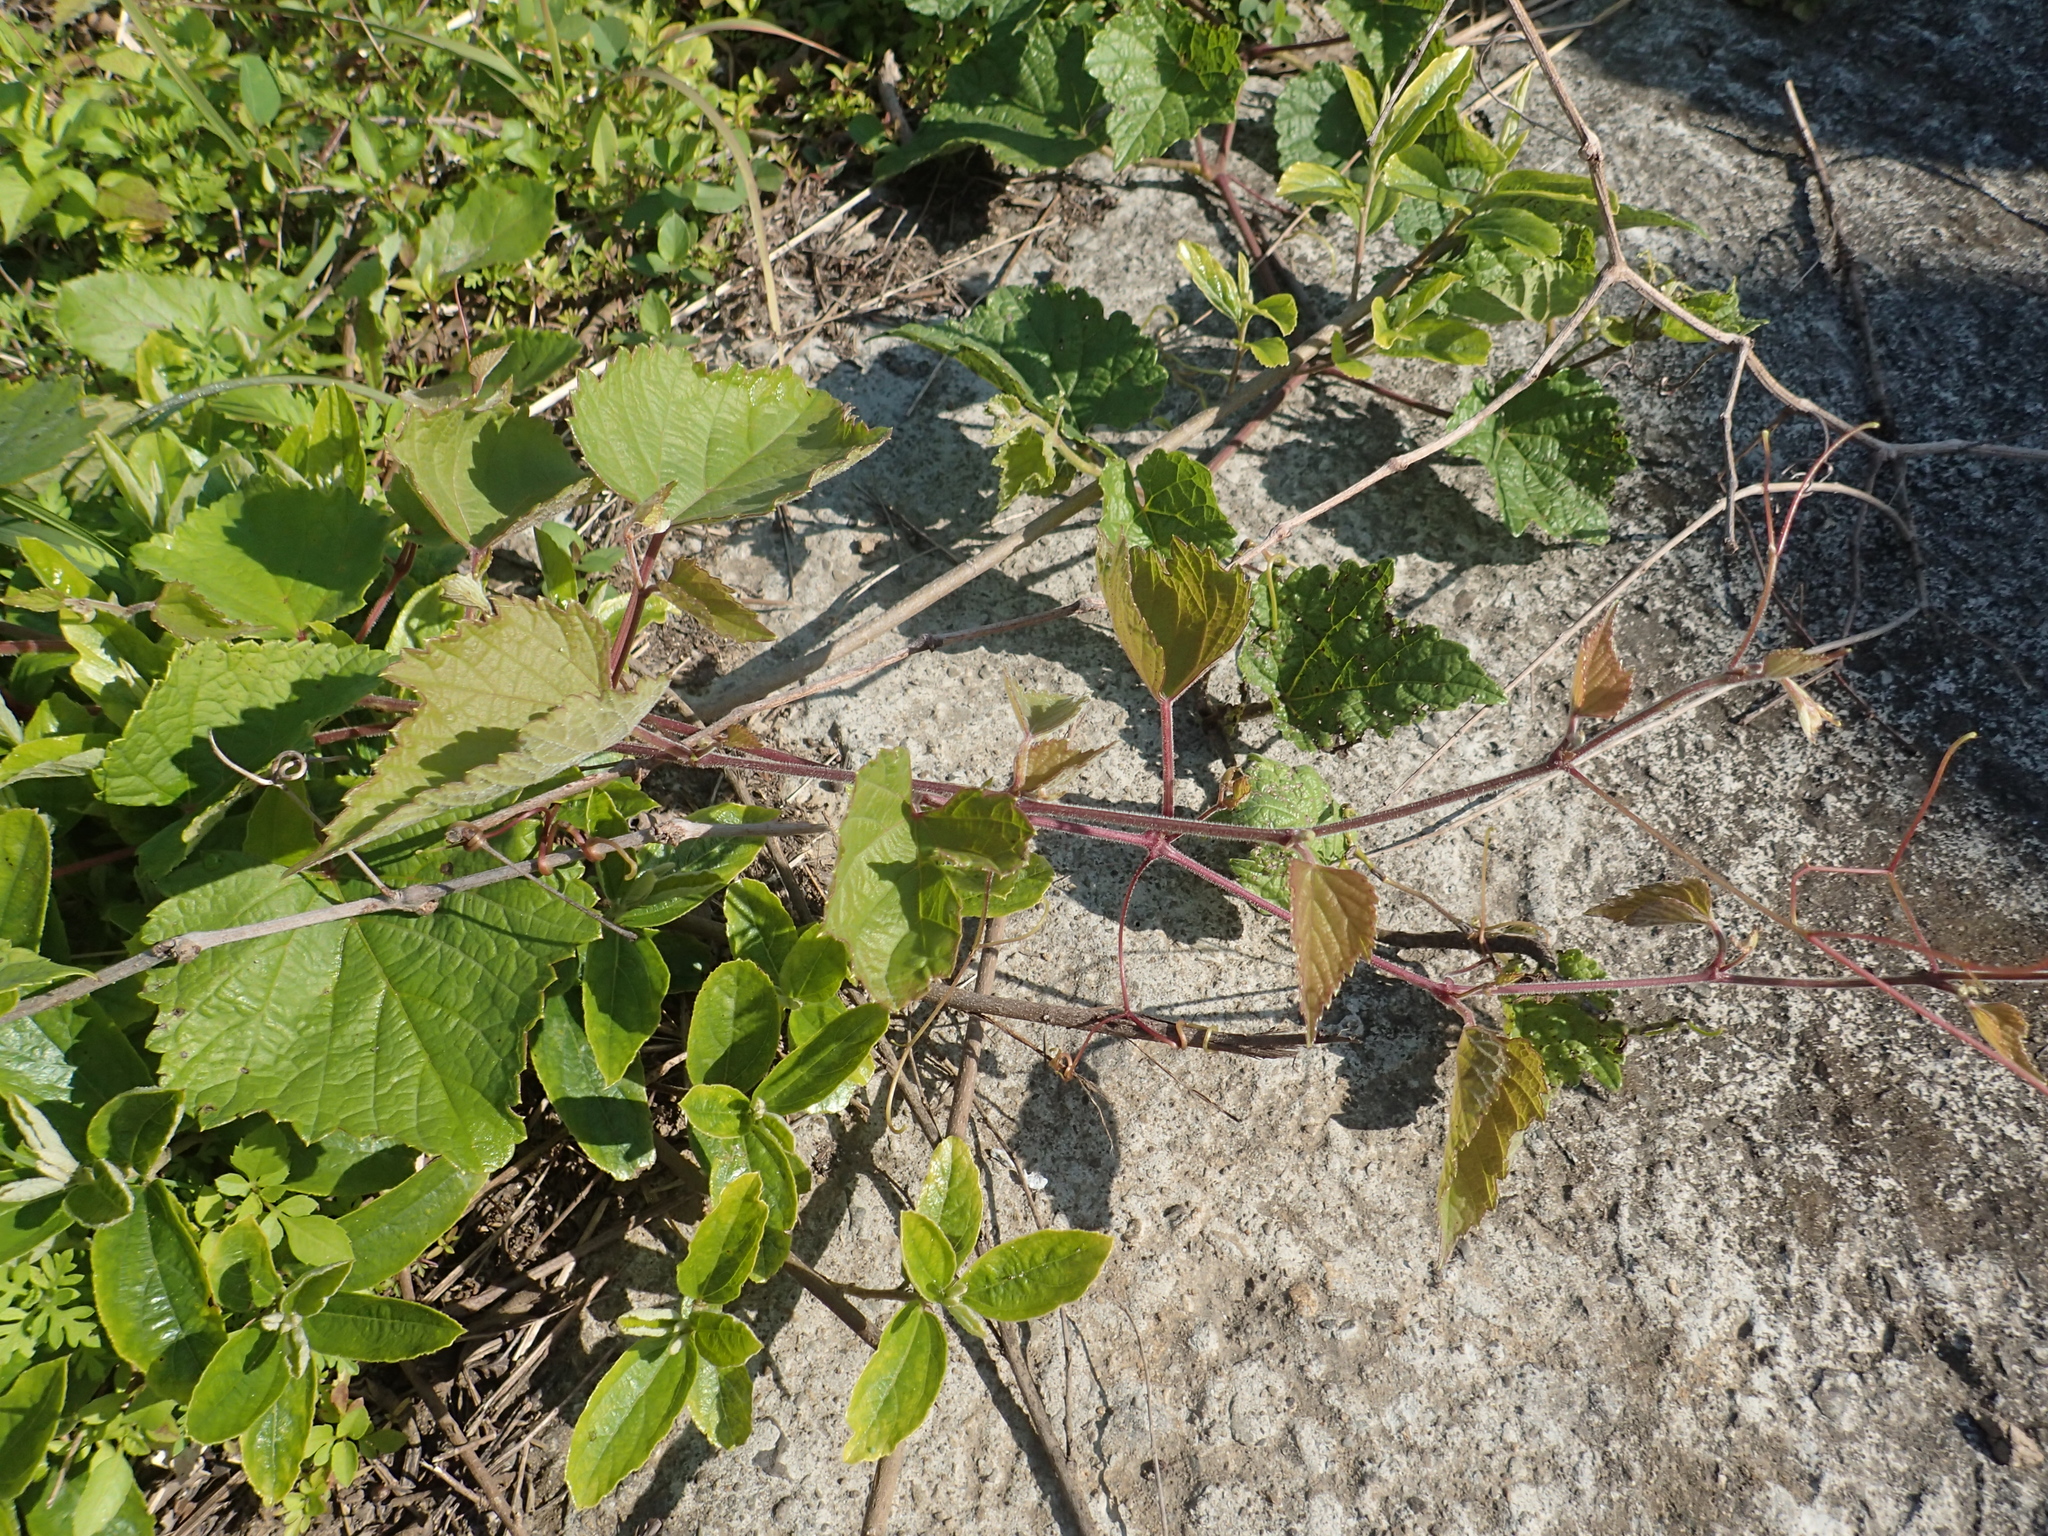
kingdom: Plantae
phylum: Tracheophyta
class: Magnoliopsida
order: Vitales
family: Vitaceae
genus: Ampelopsis
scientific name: Ampelopsis glandulosa
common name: Amur peppervine
